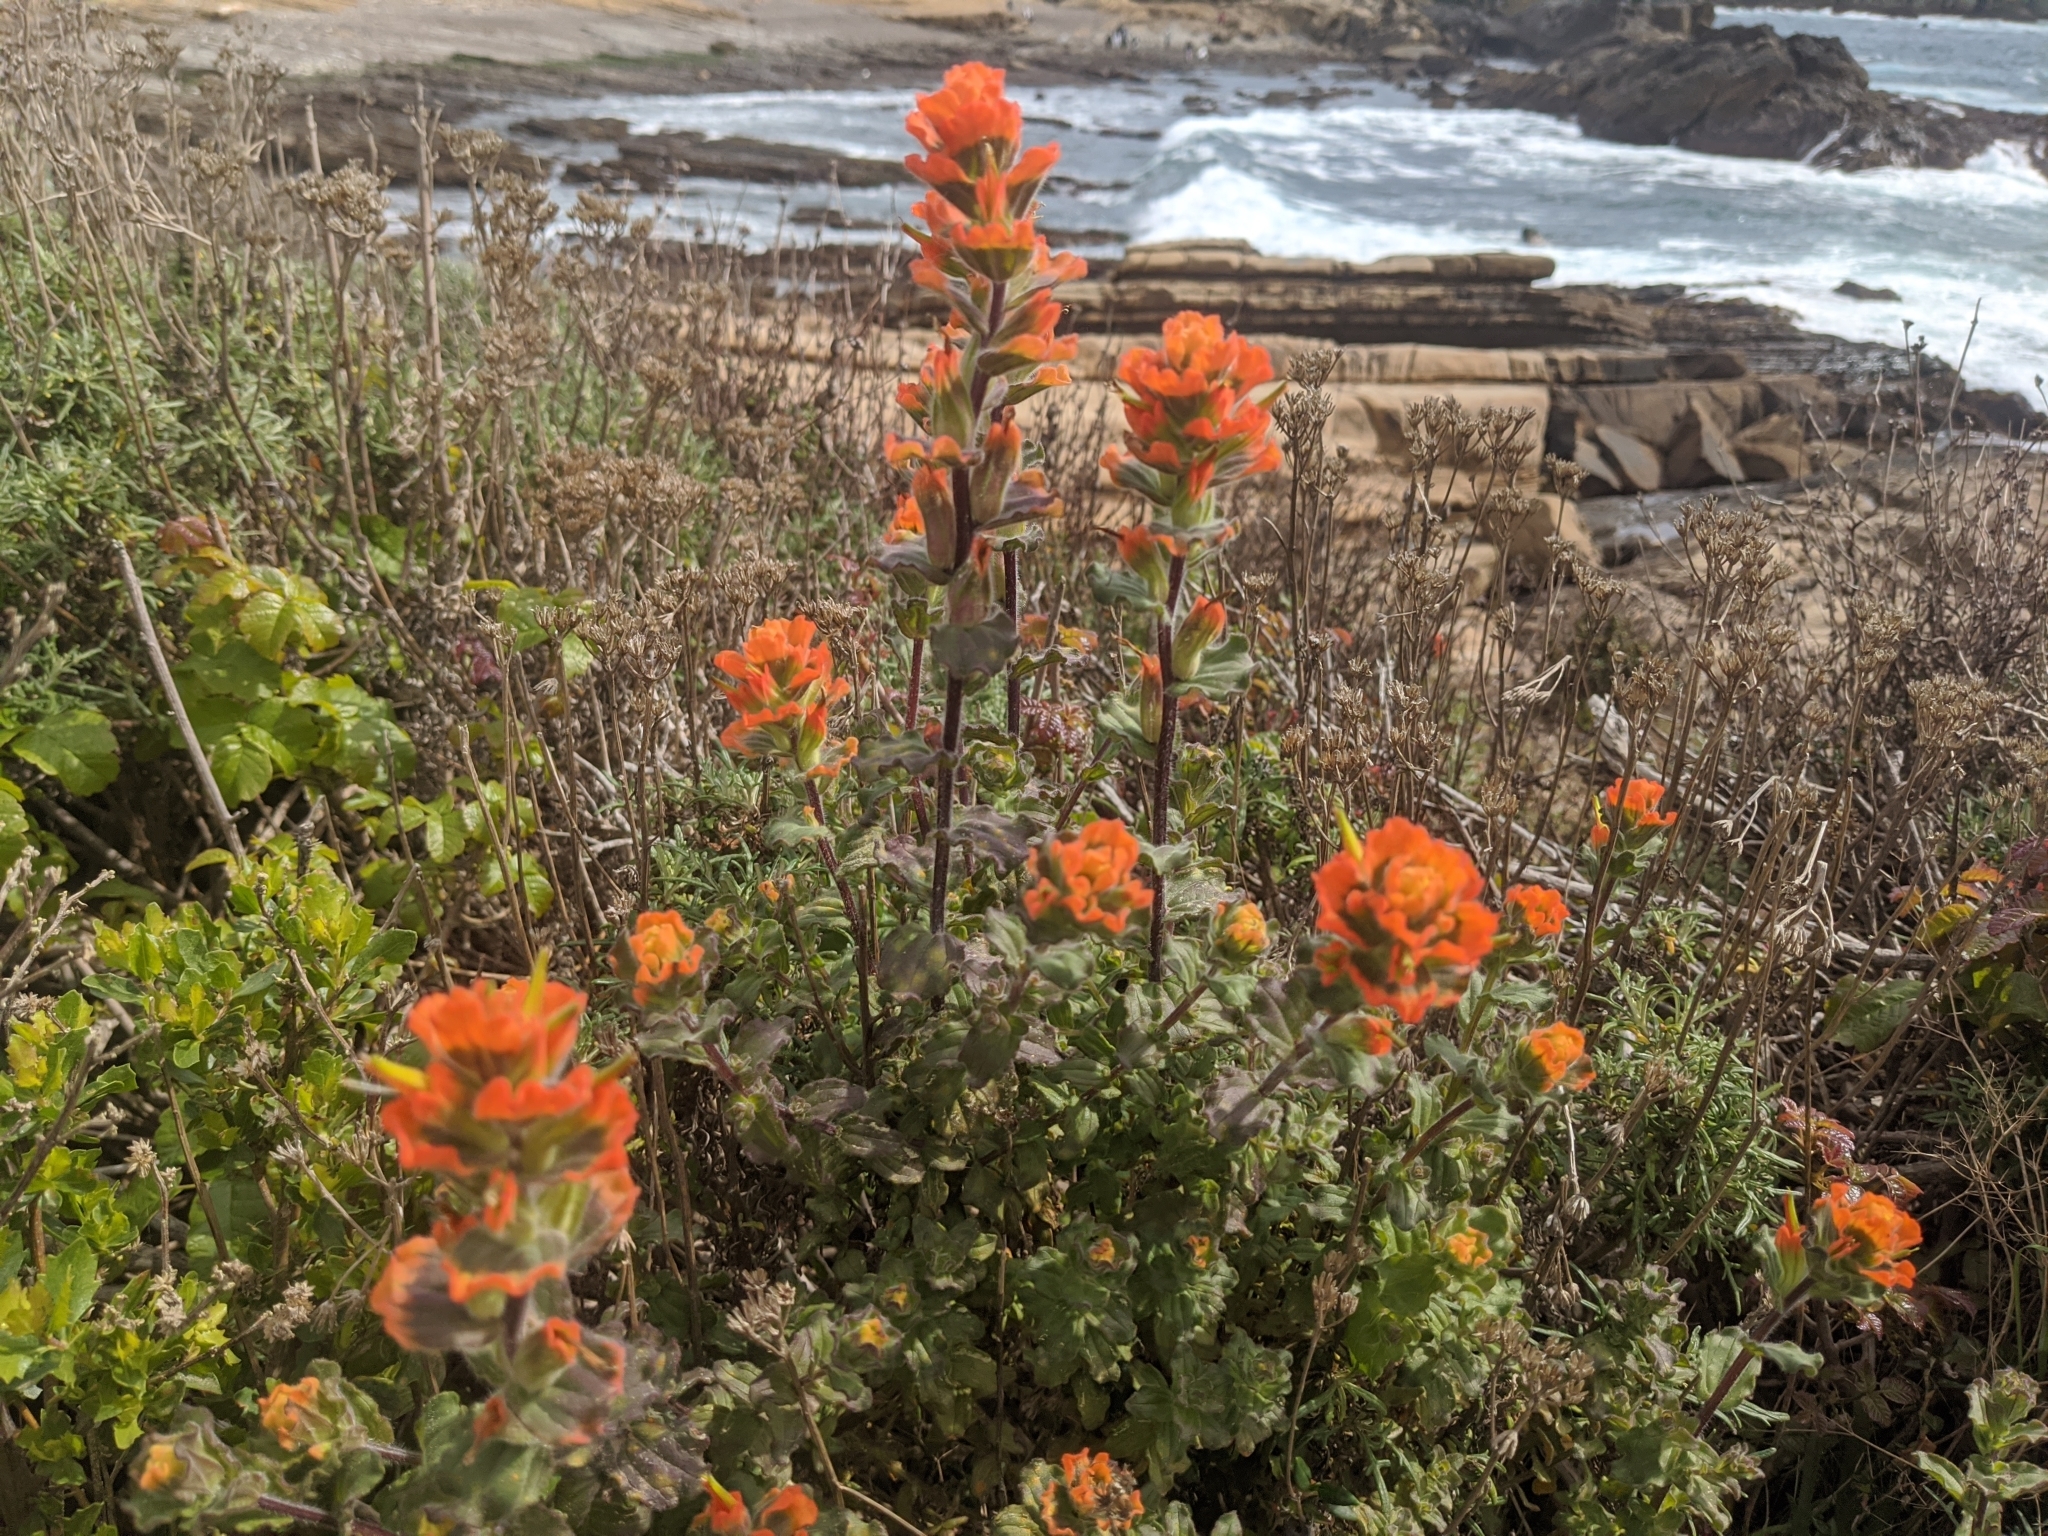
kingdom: Plantae
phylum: Tracheophyta
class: Magnoliopsida
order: Lamiales
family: Orobanchaceae
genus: Castilleja
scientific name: Castilleja latifolia
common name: Monterey indian paintbrush
